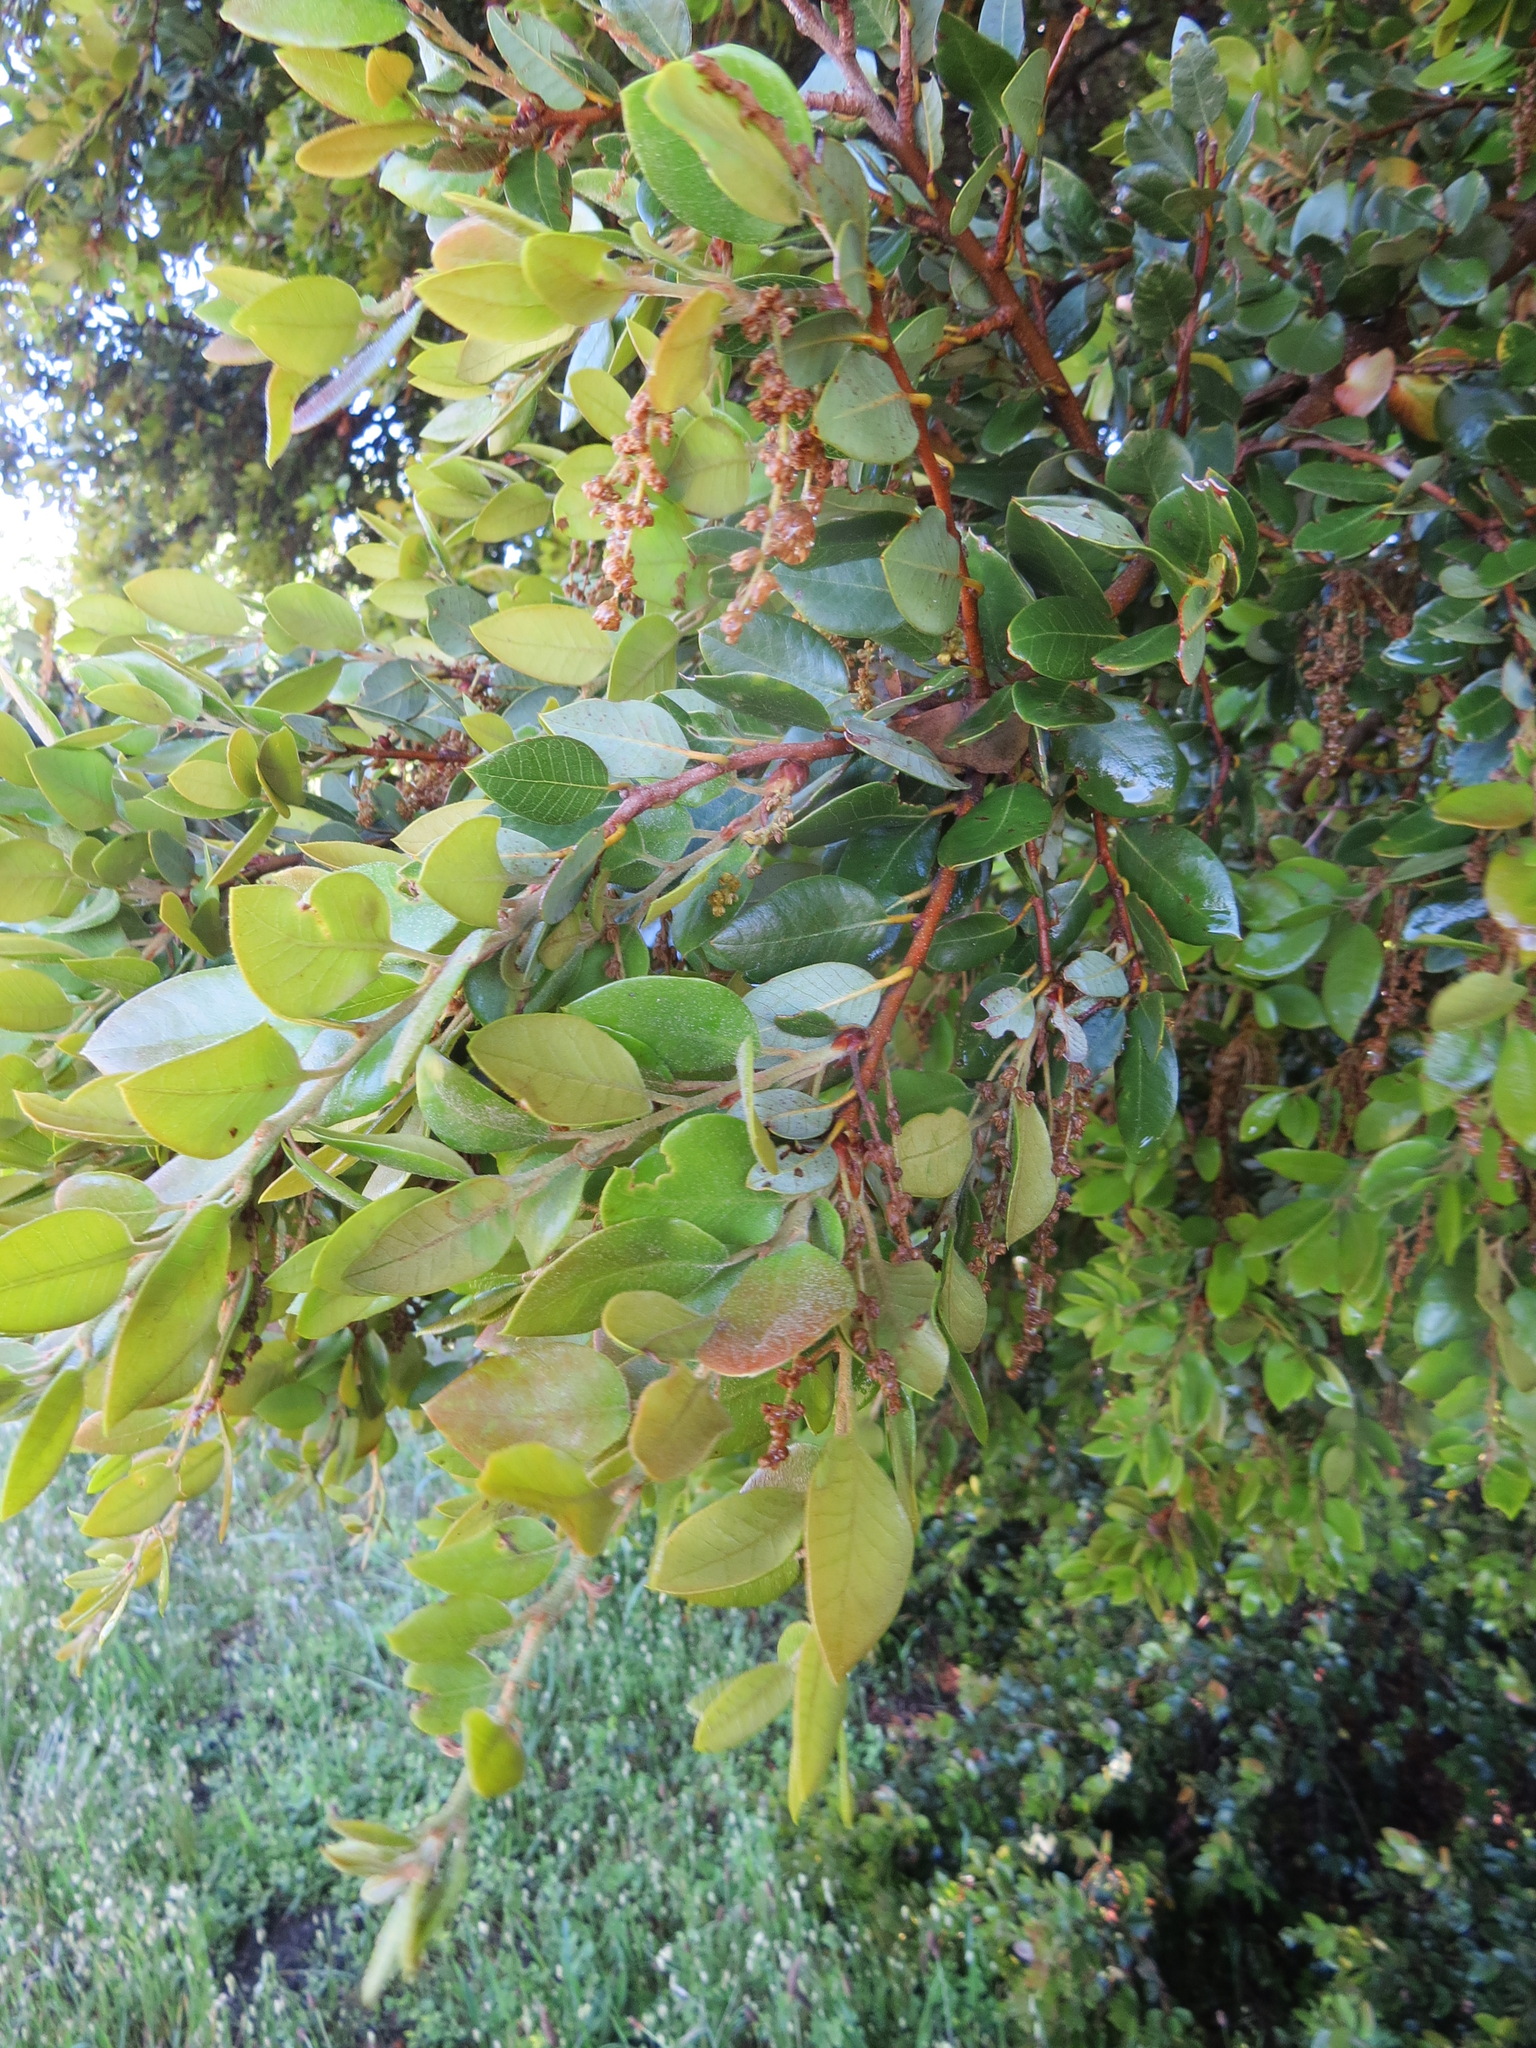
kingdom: Plantae
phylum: Tracheophyta
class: Magnoliopsida
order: Fagales
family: Fagaceae
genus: Quercus
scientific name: Quercus chrysolepis
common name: Canyon live oak
